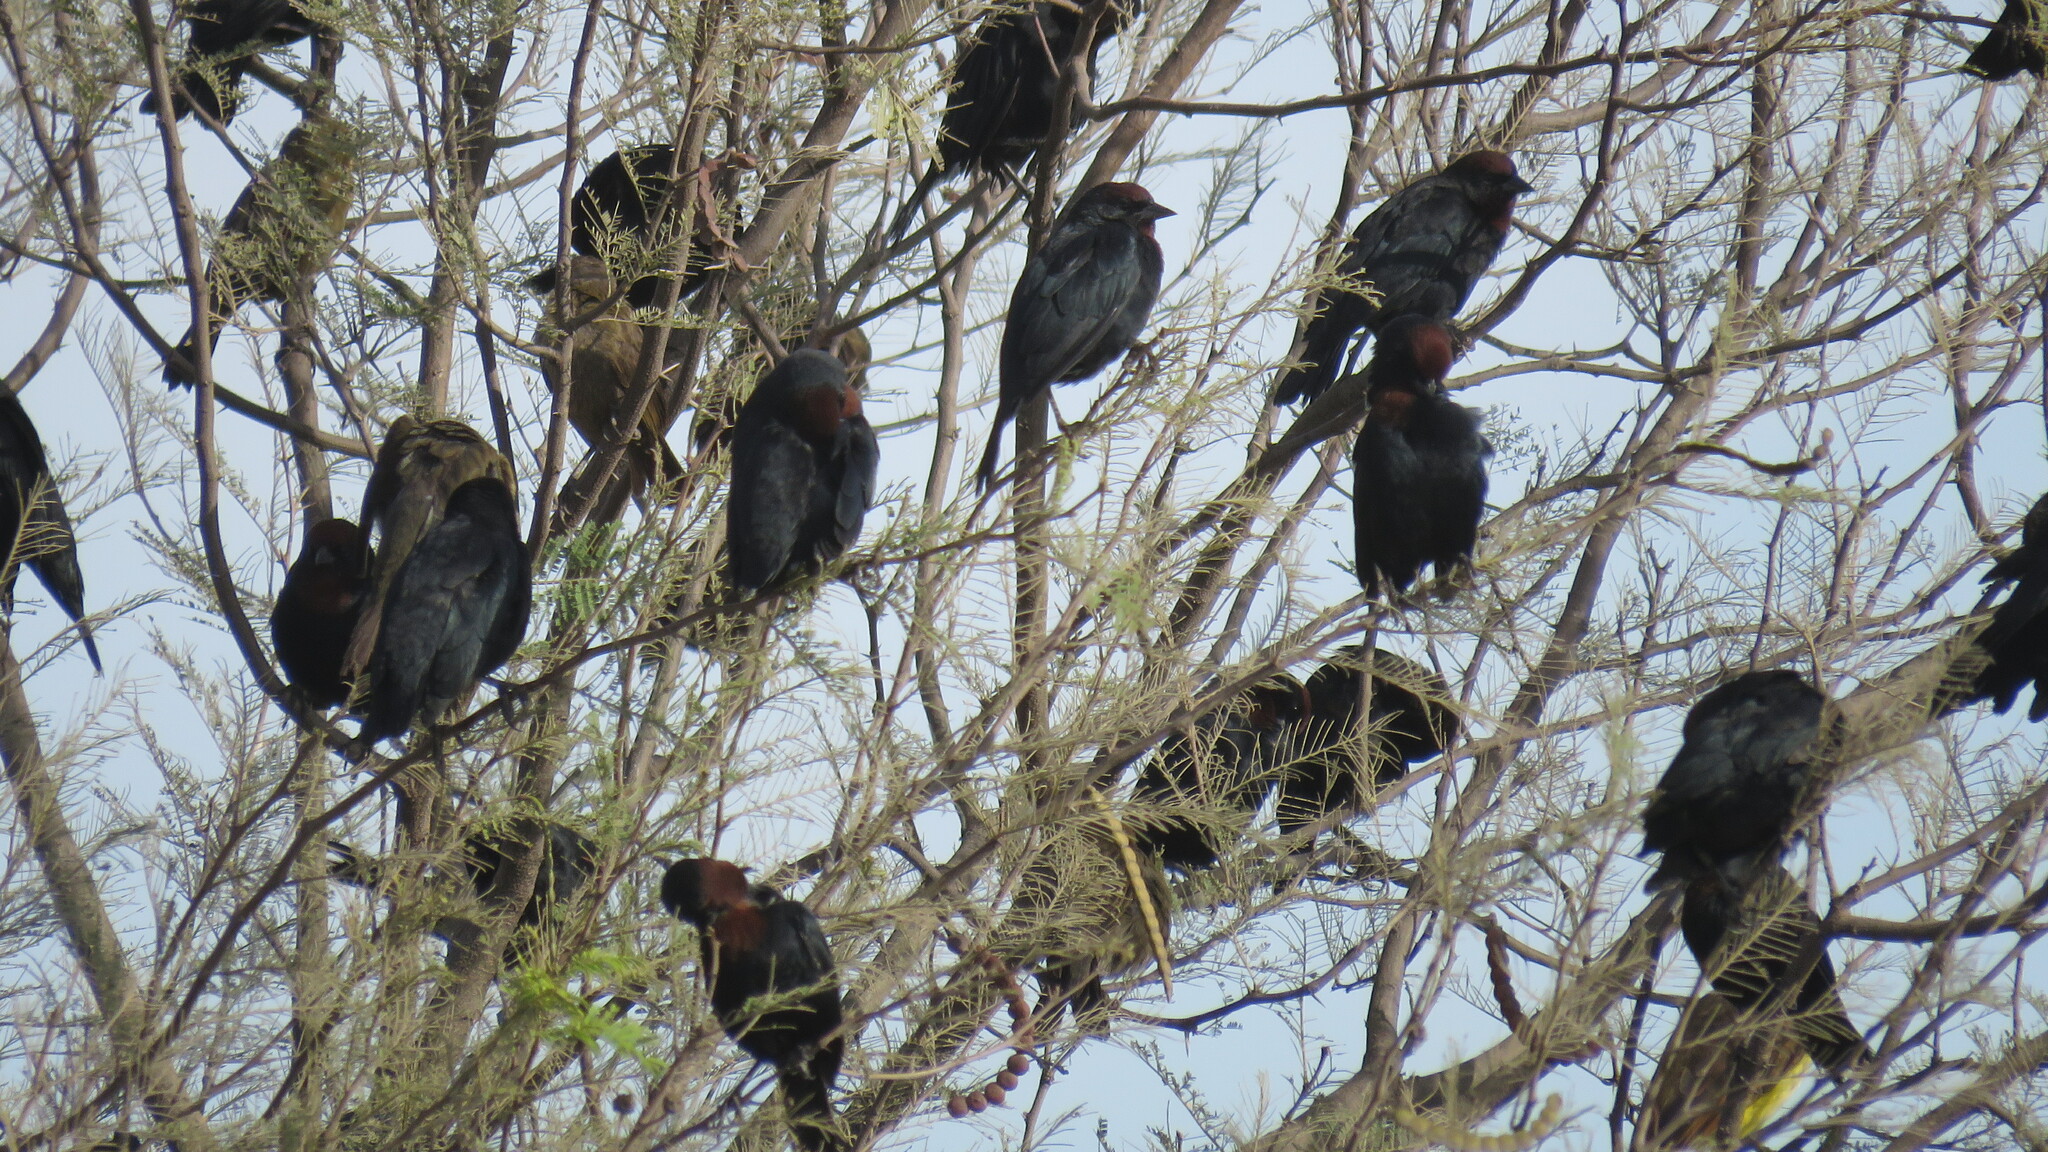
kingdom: Animalia
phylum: Chordata
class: Aves
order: Passeriformes
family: Icteridae
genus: Chrysomus
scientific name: Chrysomus ruficapillus
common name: Chestnut-capped blackbird
